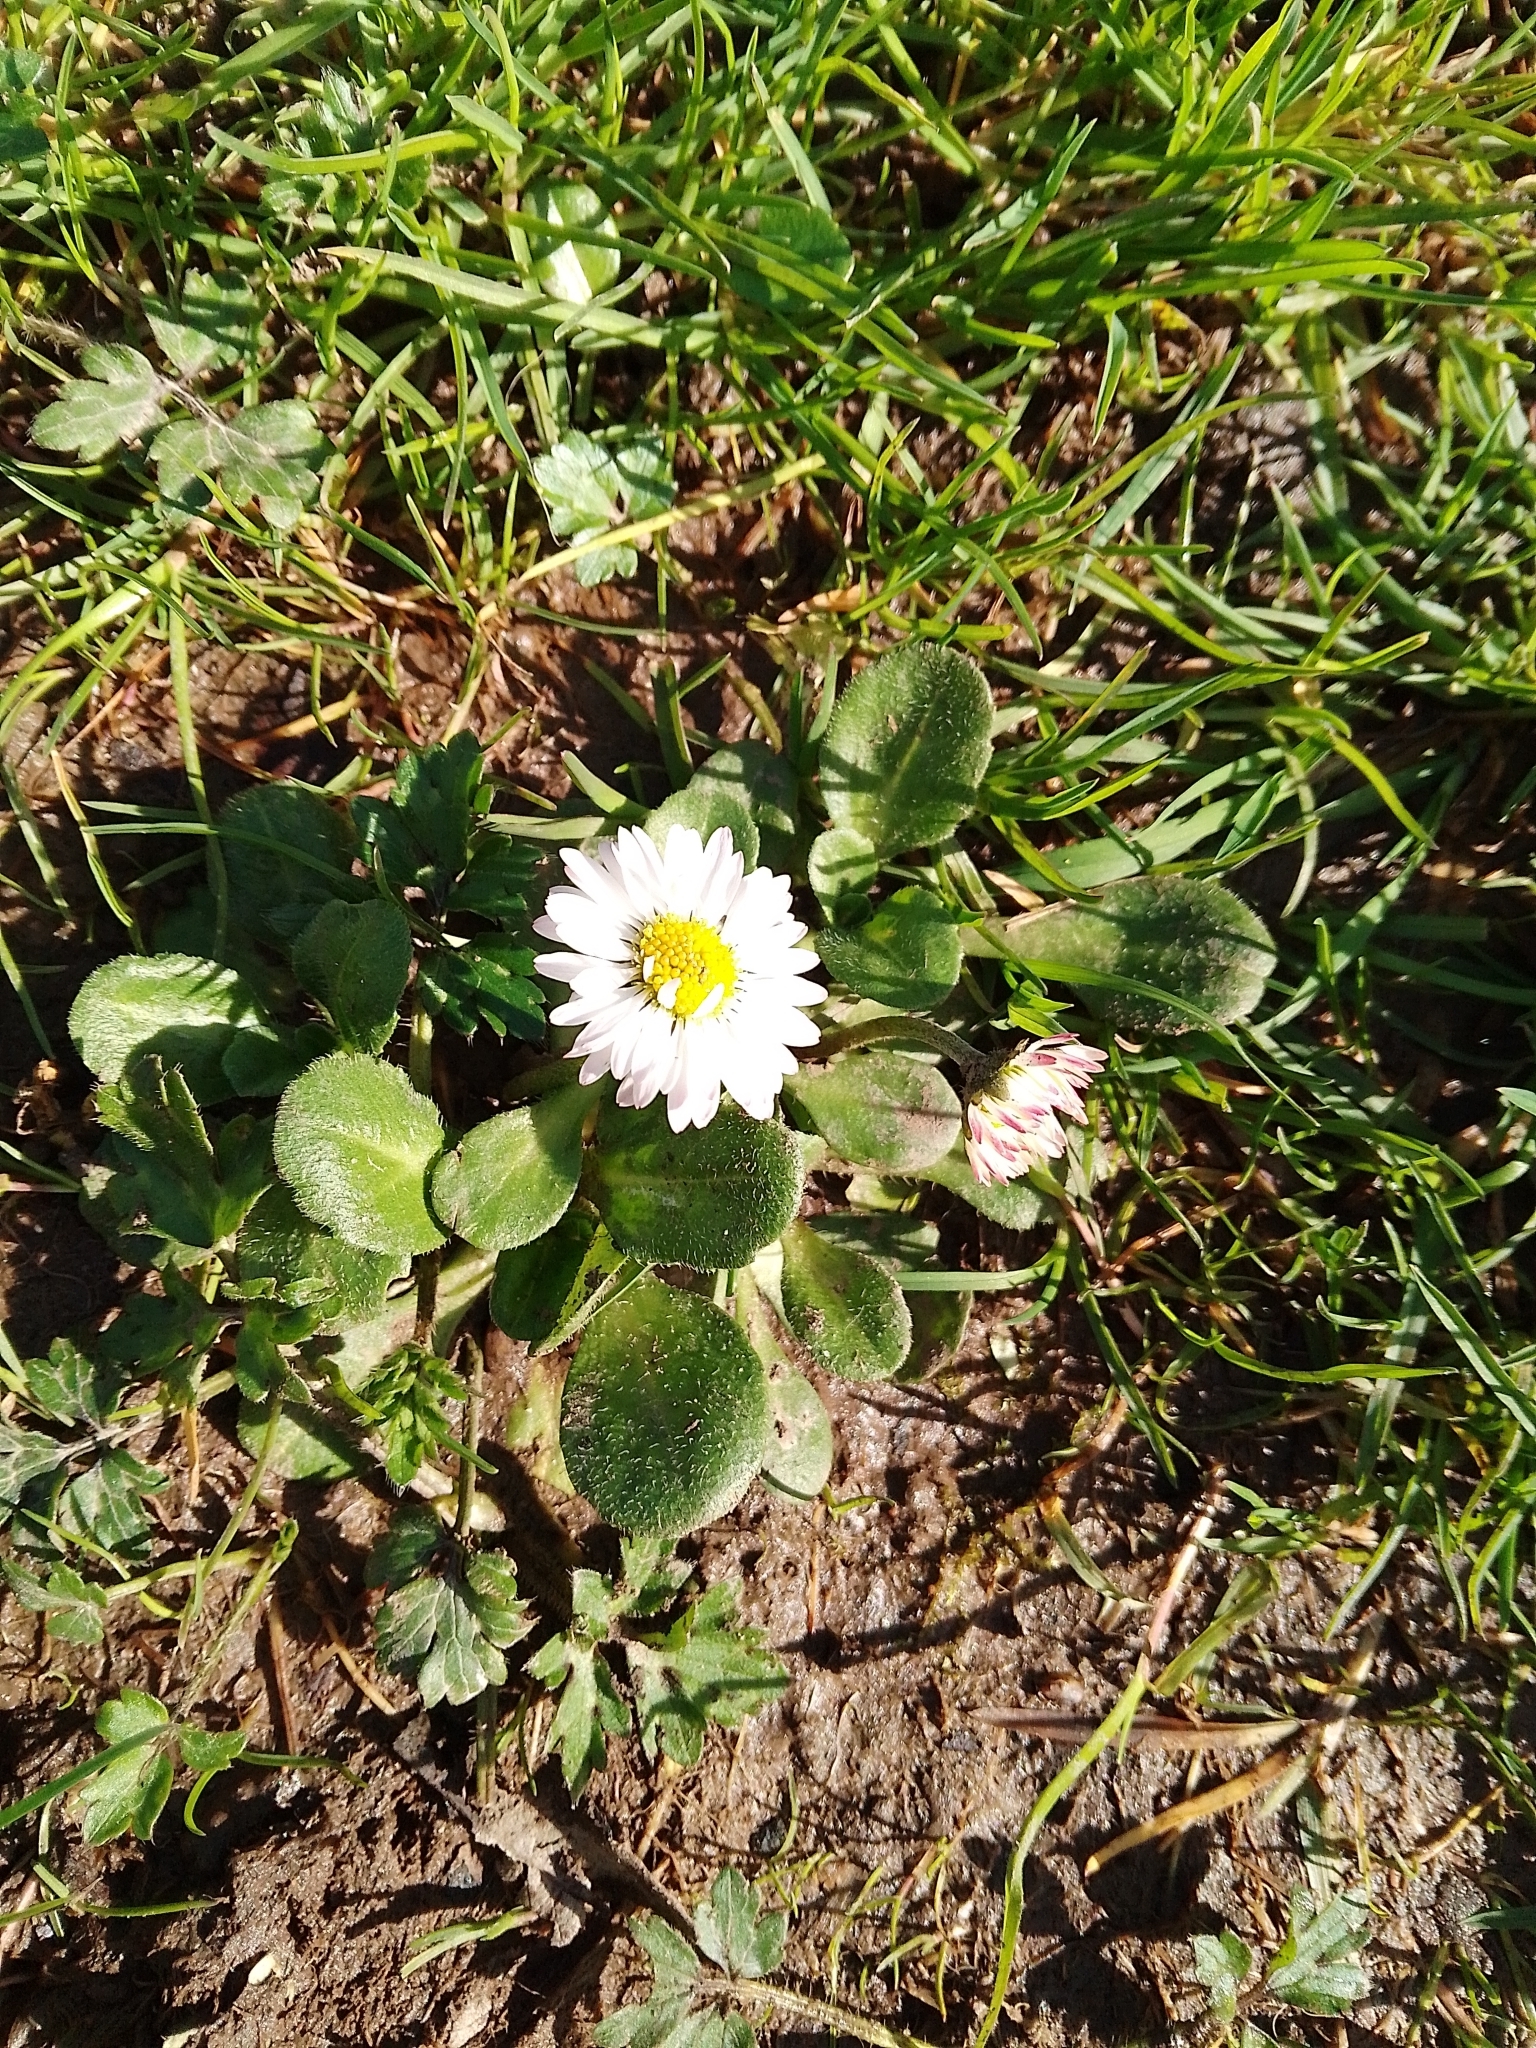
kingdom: Plantae
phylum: Tracheophyta
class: Magnoliopsida
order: Asterales
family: Asteraceae
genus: Bellis
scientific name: Bellis perennis
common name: Lawndaisy
